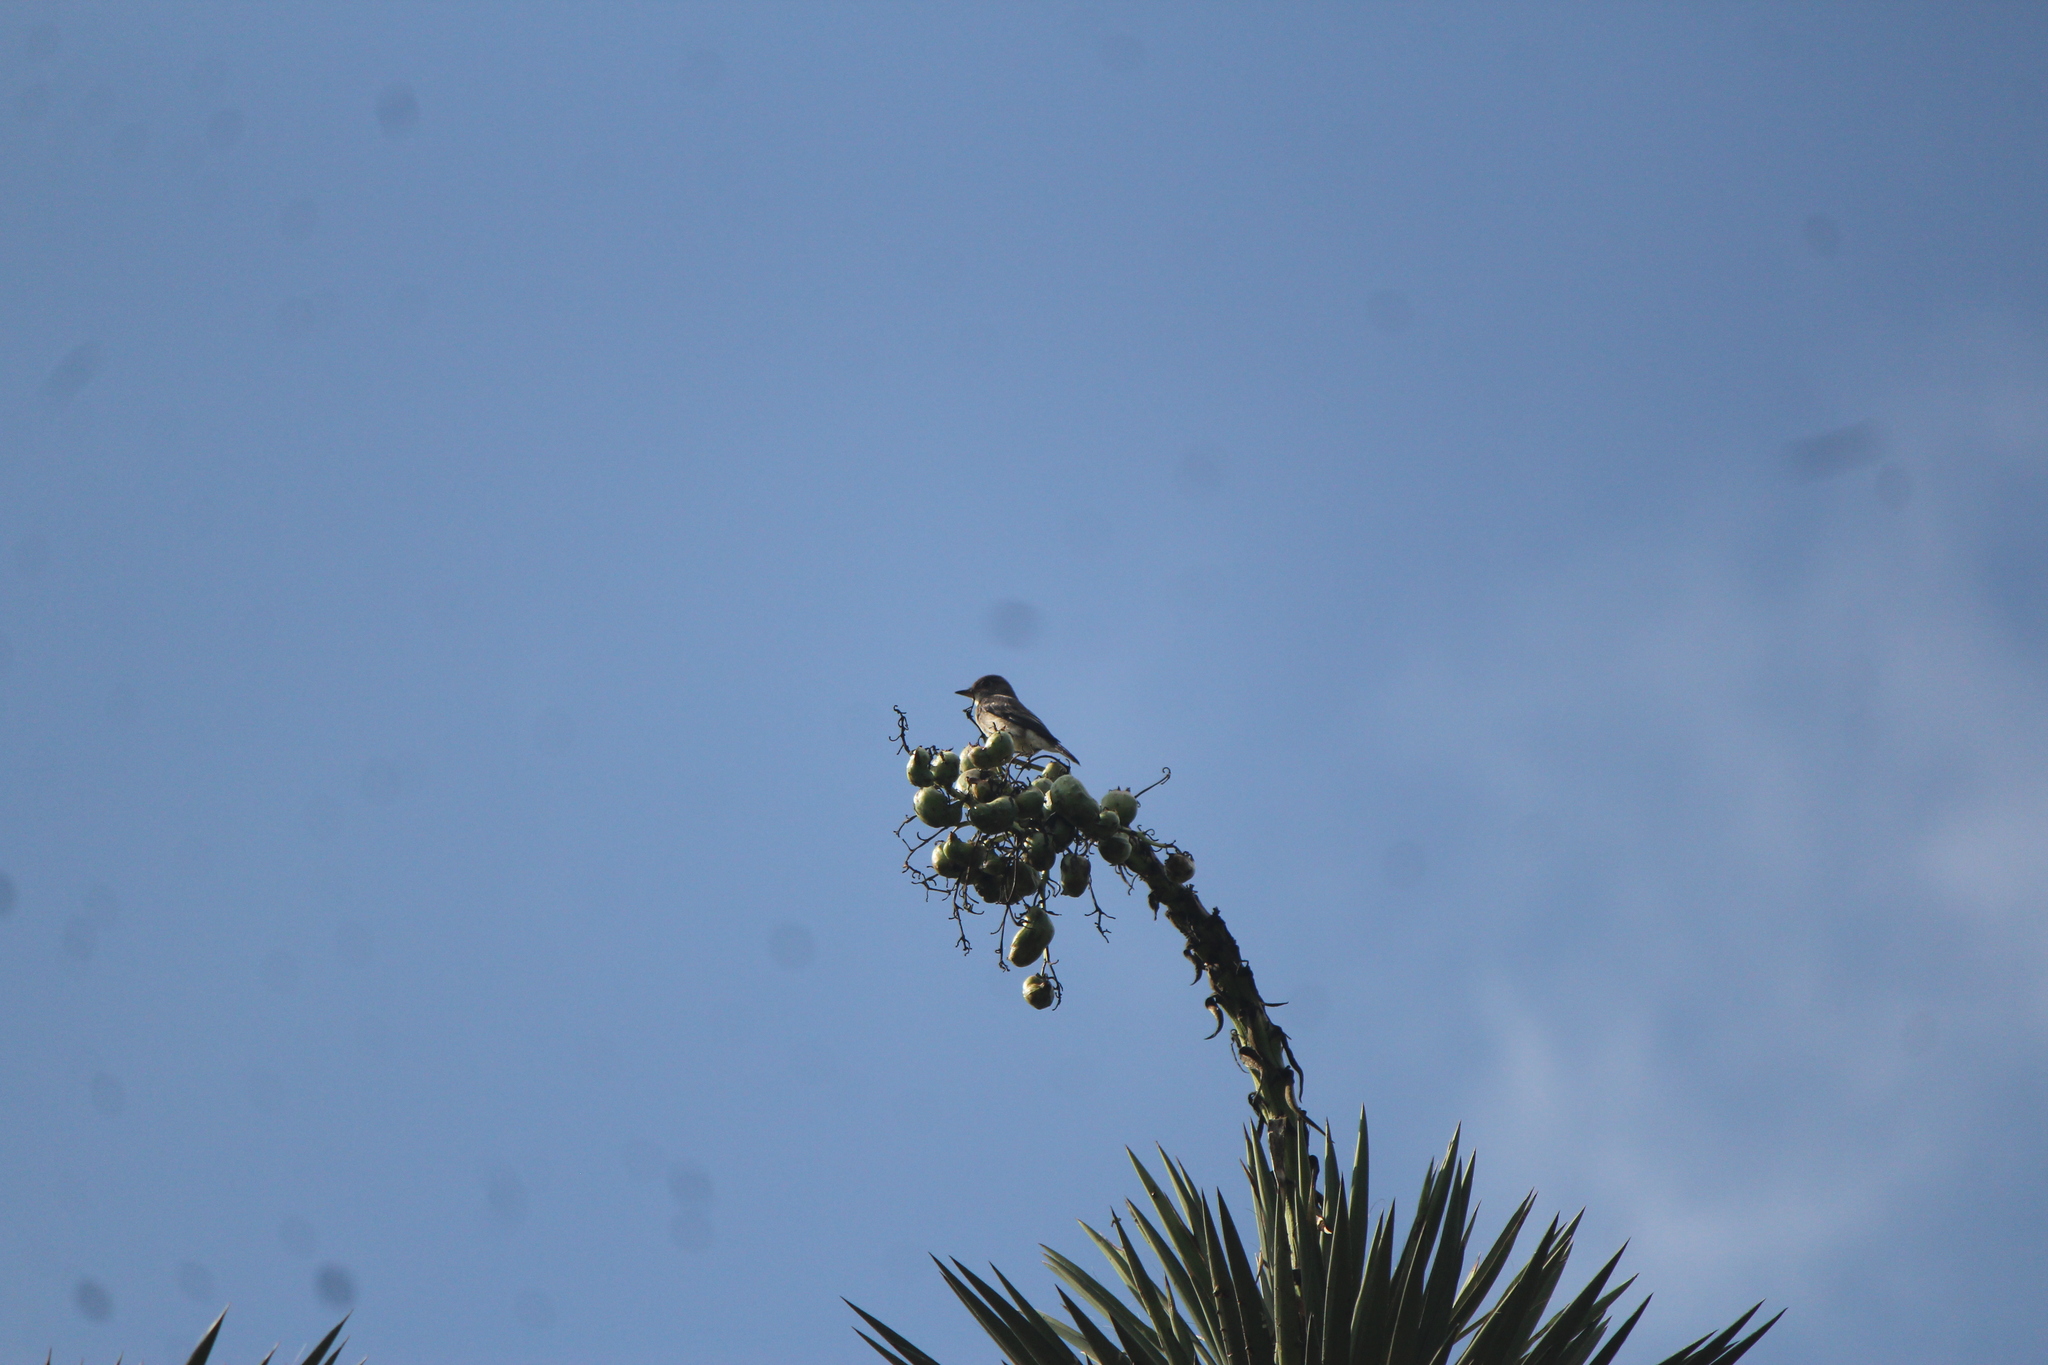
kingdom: Animalia
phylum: Chordata
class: Aves
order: Passeriformes
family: Tyrannidae
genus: Contopus
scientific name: Contopus cooperi
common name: Olive-sided flycatcher
